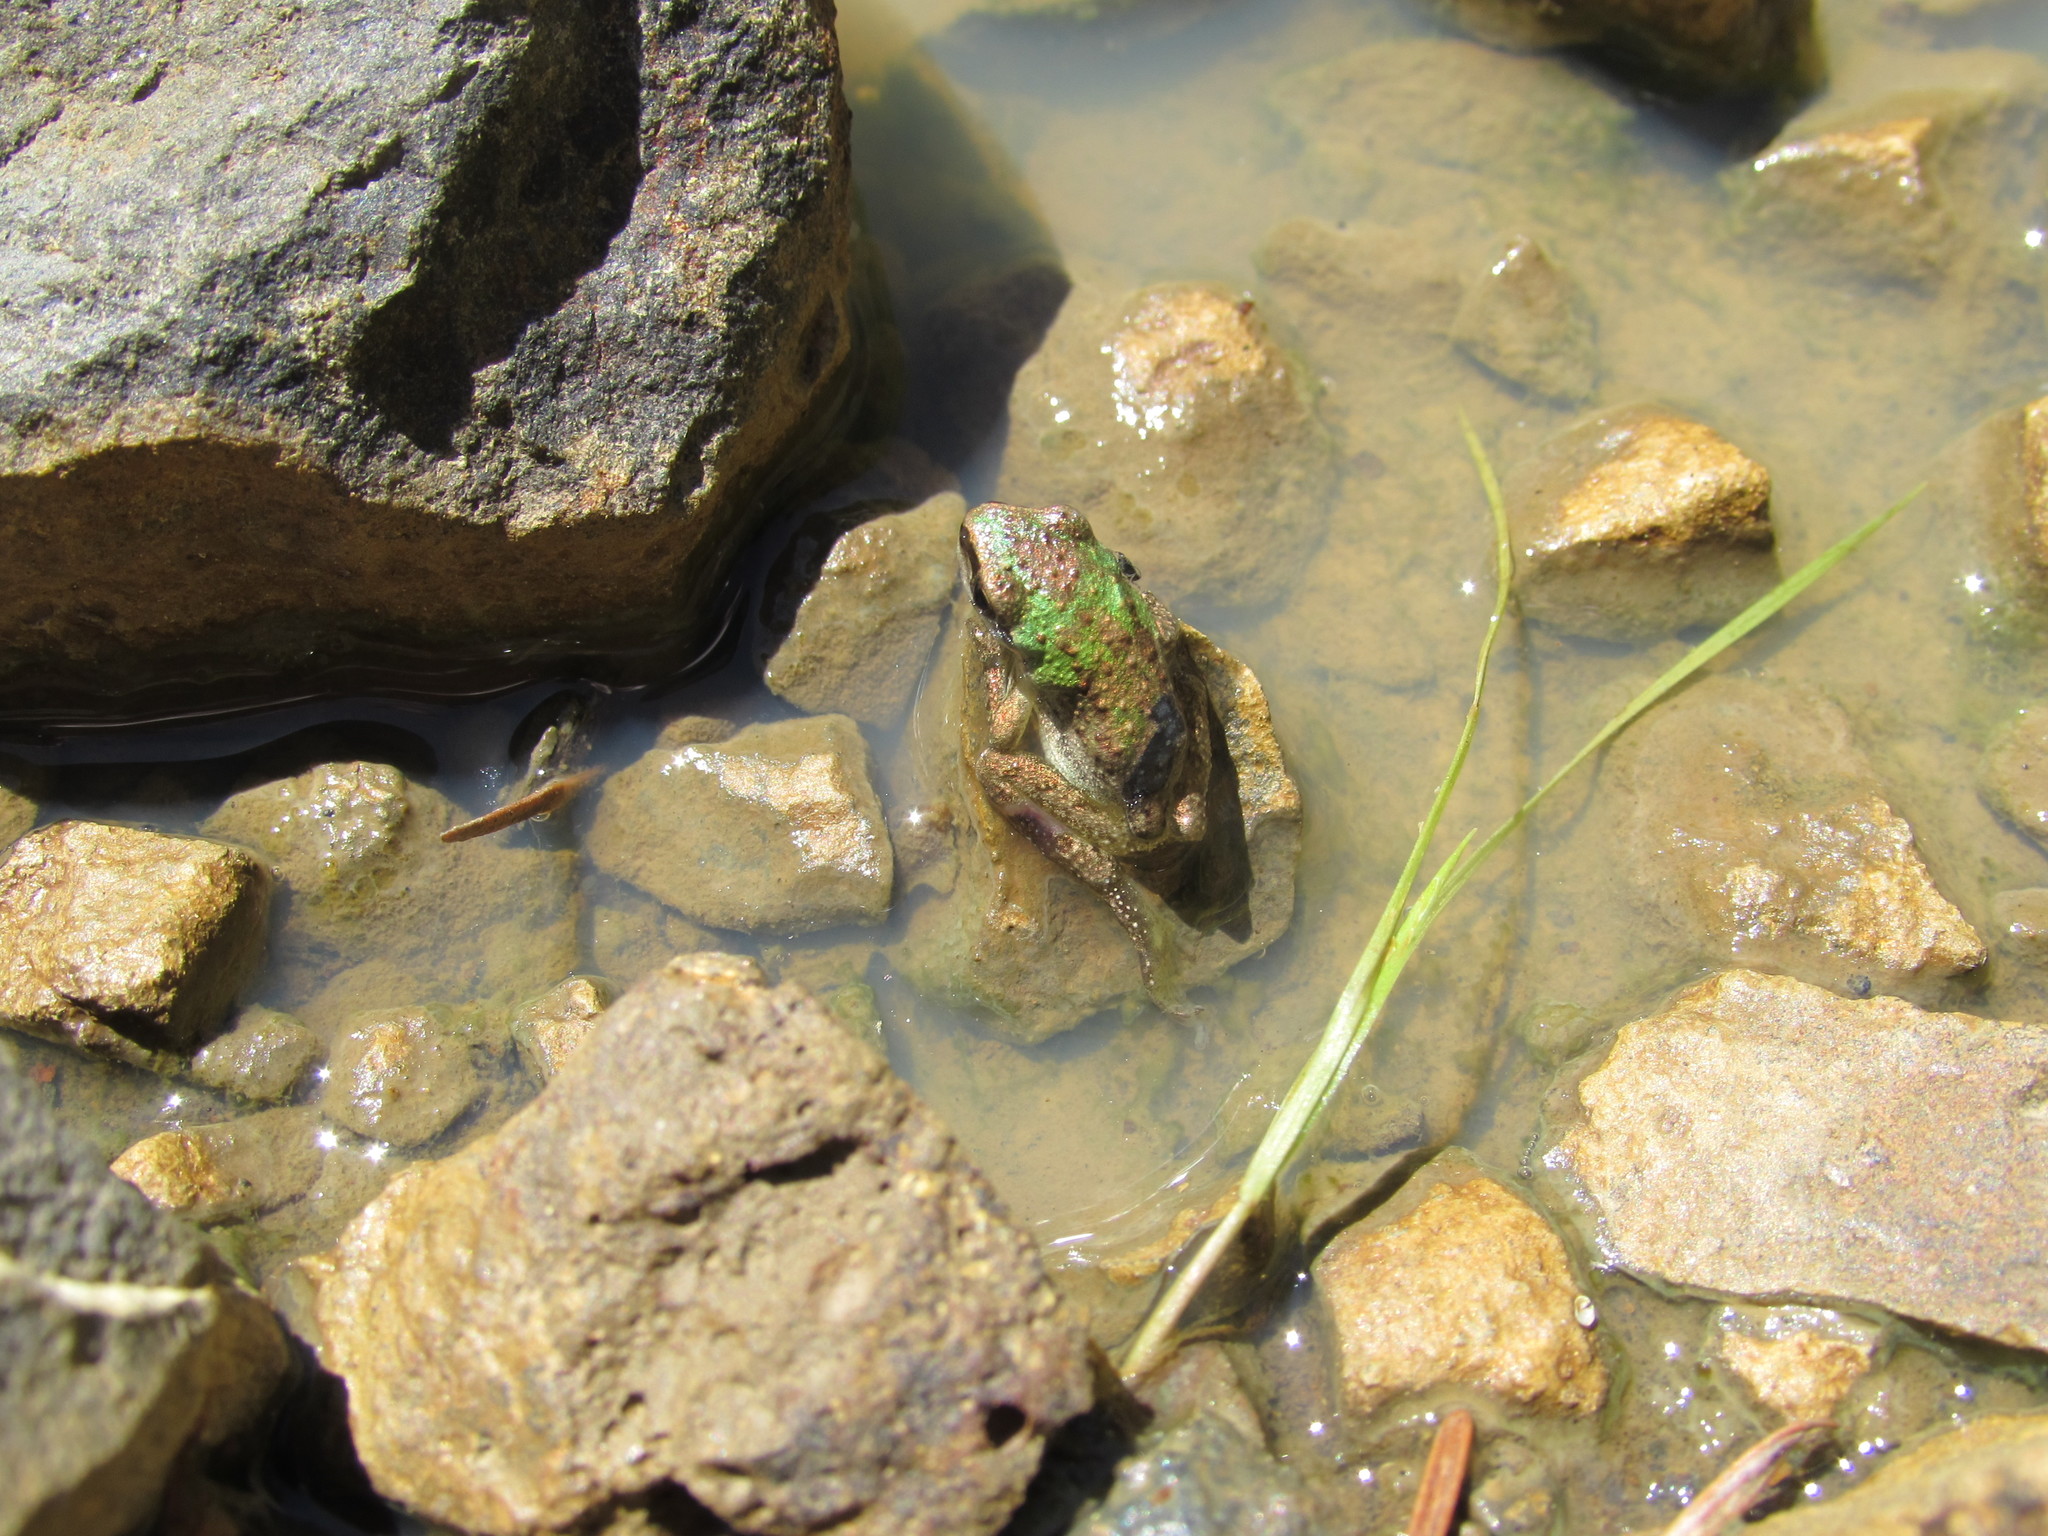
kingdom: Animalia
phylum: Chordata
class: Amphibia
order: Anura
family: Hylidae
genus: Pseudacris
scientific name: Pseudacris regilla
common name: Pacific chorus frog
